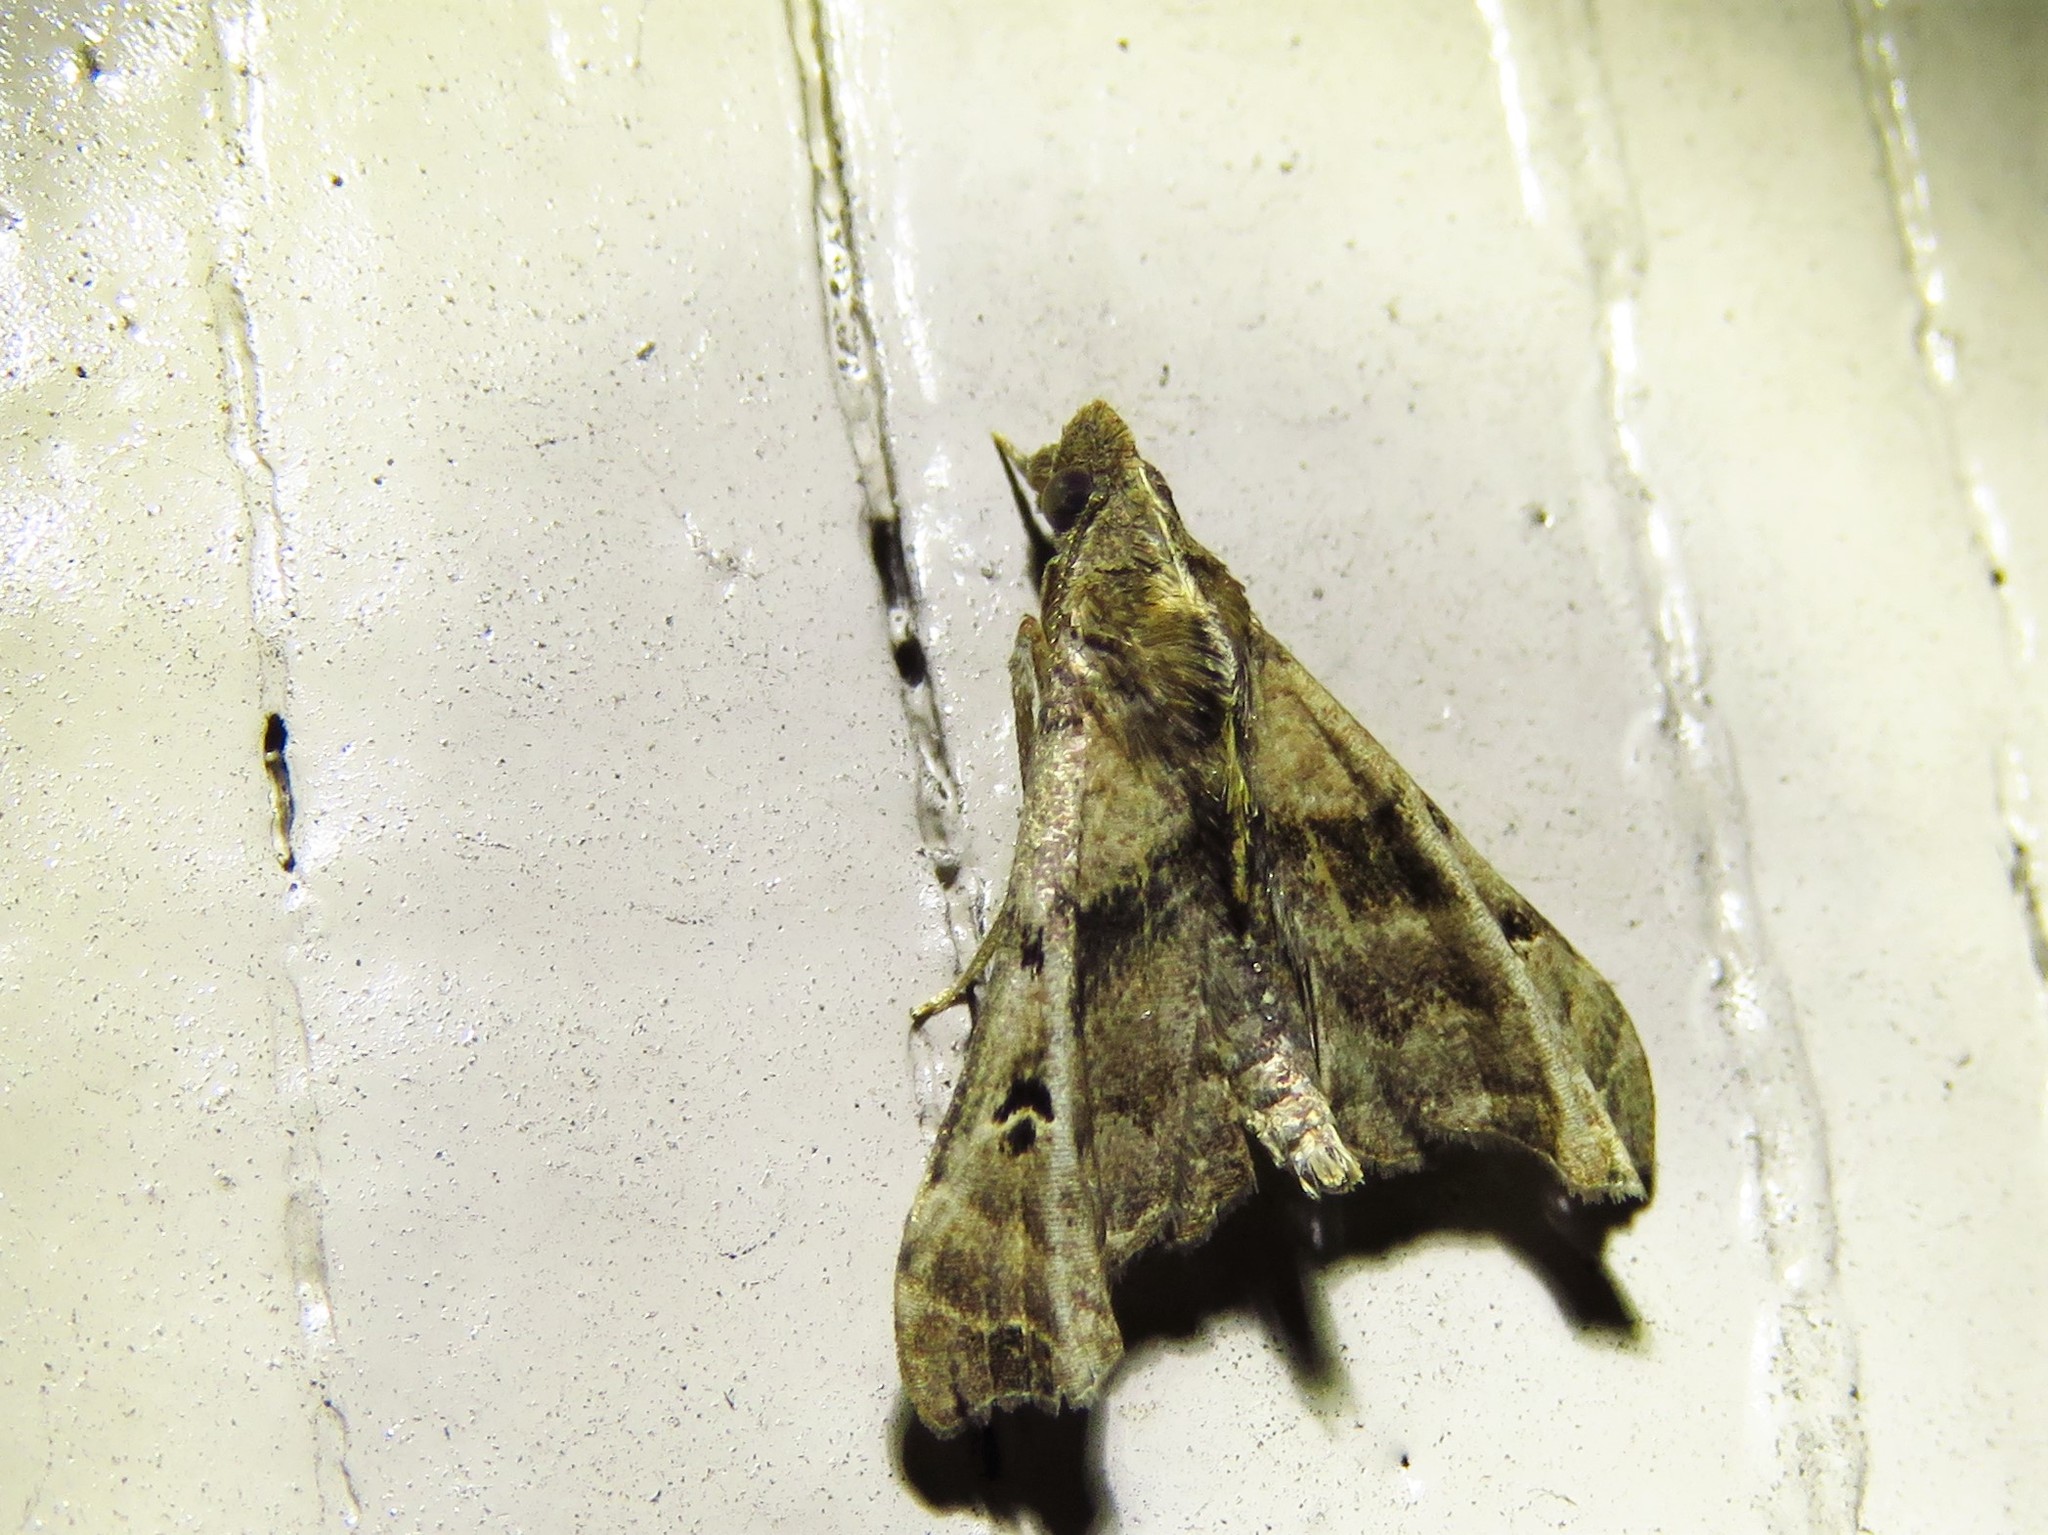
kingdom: Animalia
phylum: Arthropoda
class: Insecta
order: Lepidoptera
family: Erebidae
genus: Palthis
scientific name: Palthis asopialis
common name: Faint-spotted palthis moth
